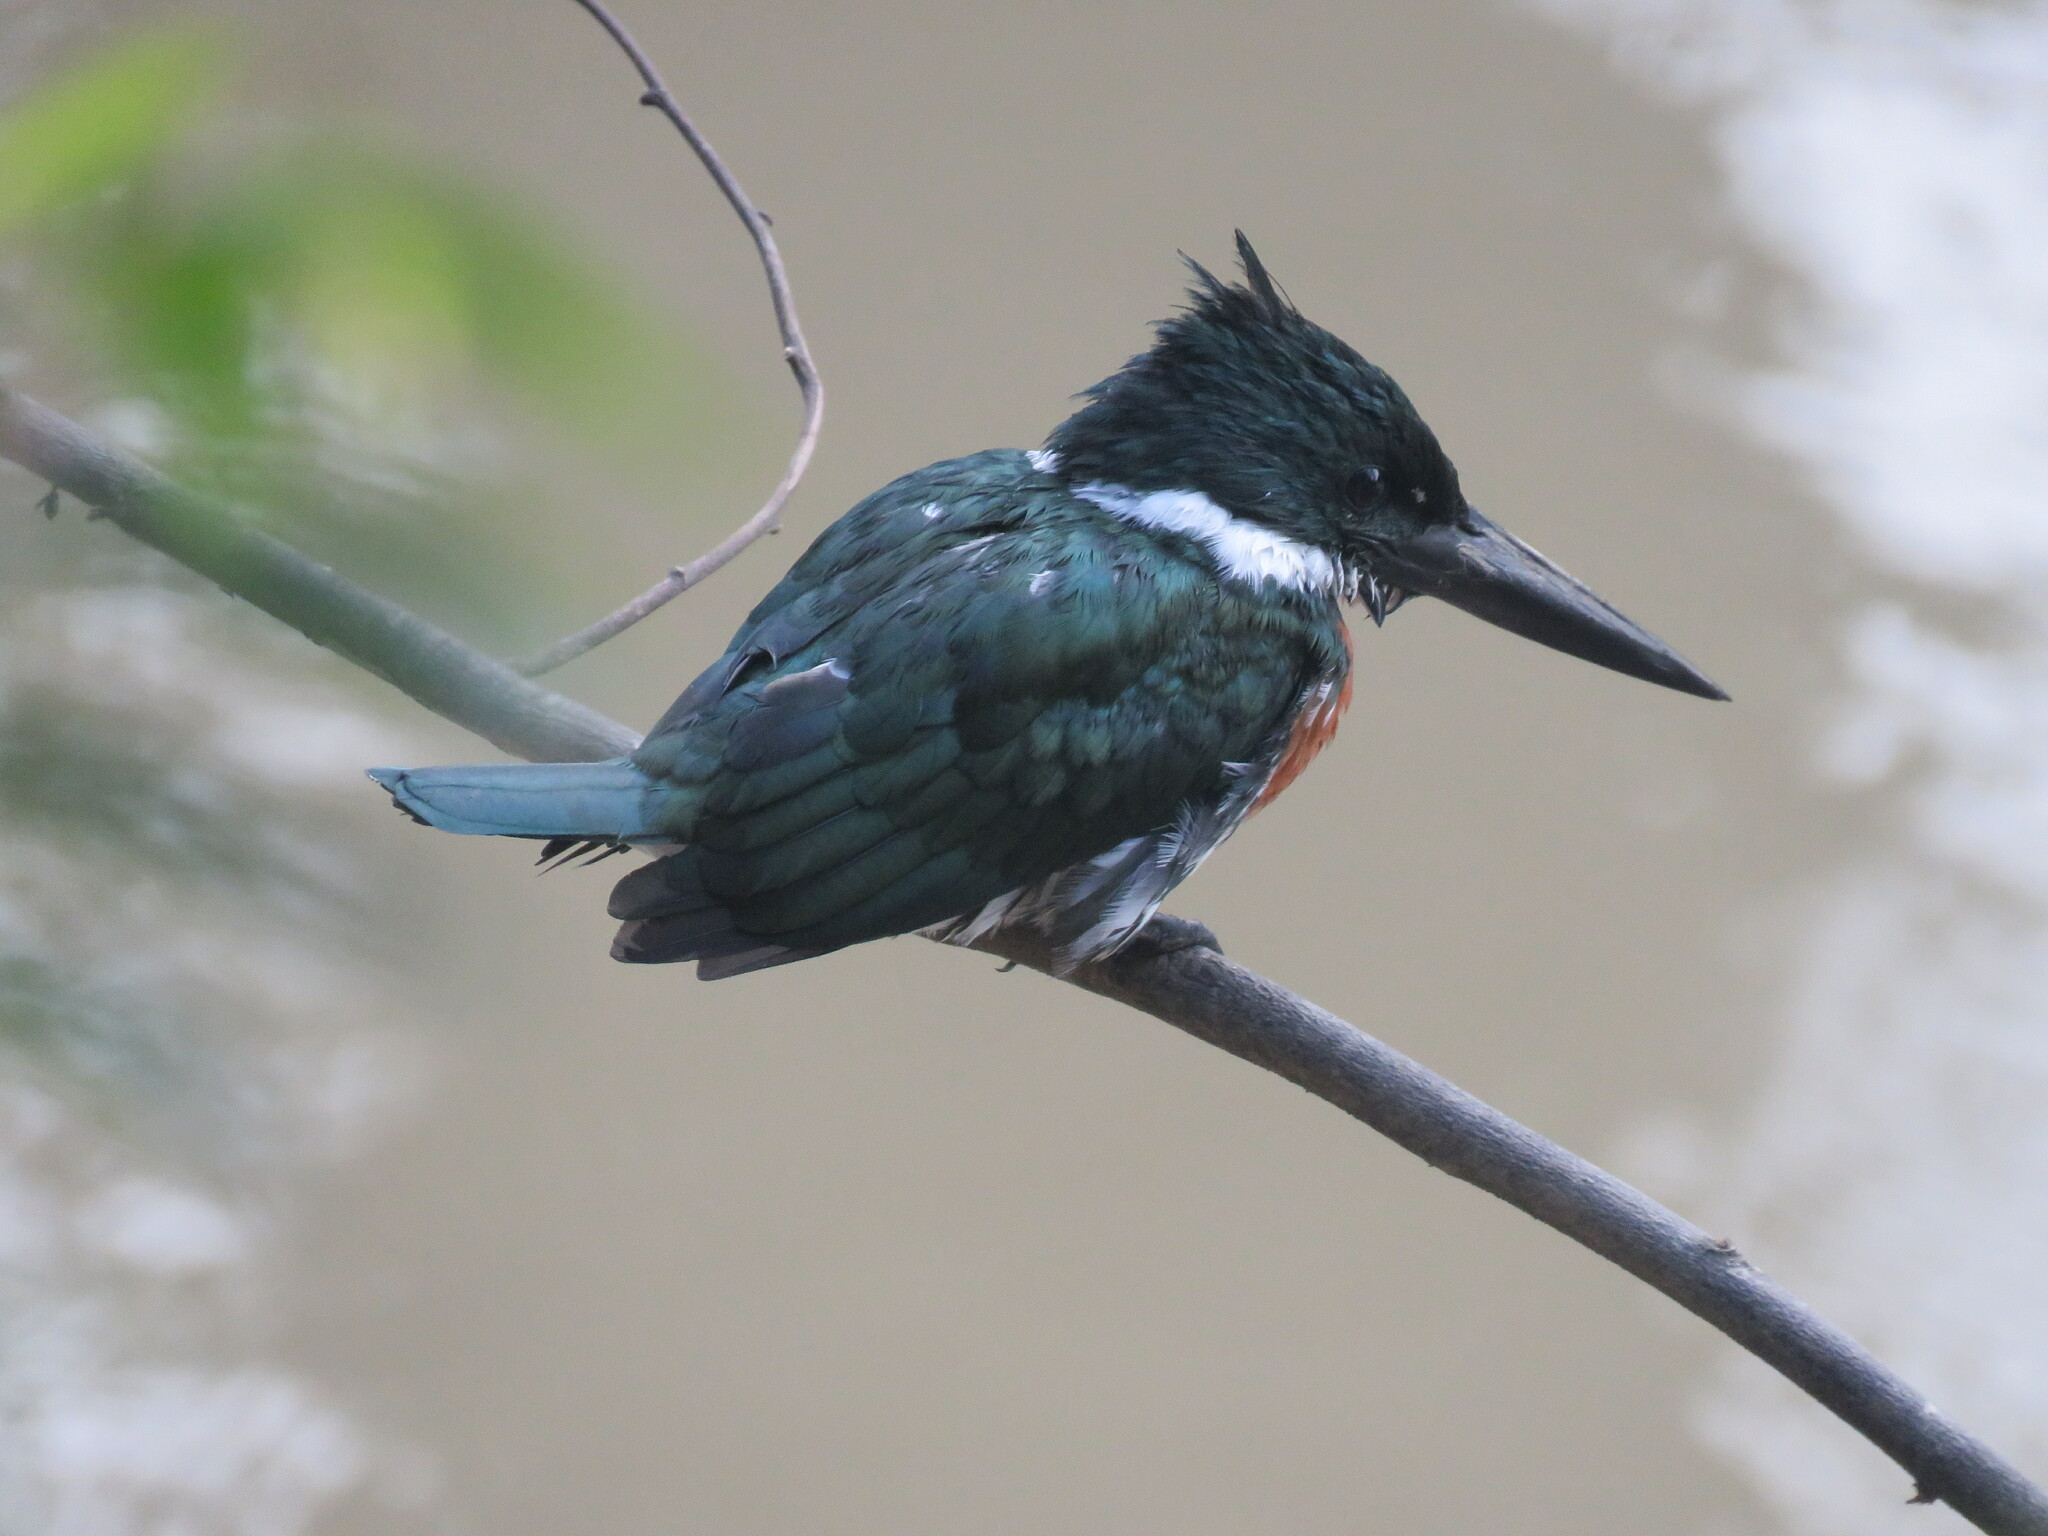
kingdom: Animalia
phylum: Chordata
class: Aves
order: Coraciiformes
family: Alcedinidae
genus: Chloroceryle
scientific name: Chloroceryle amazona
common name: Amazon kingfisher
